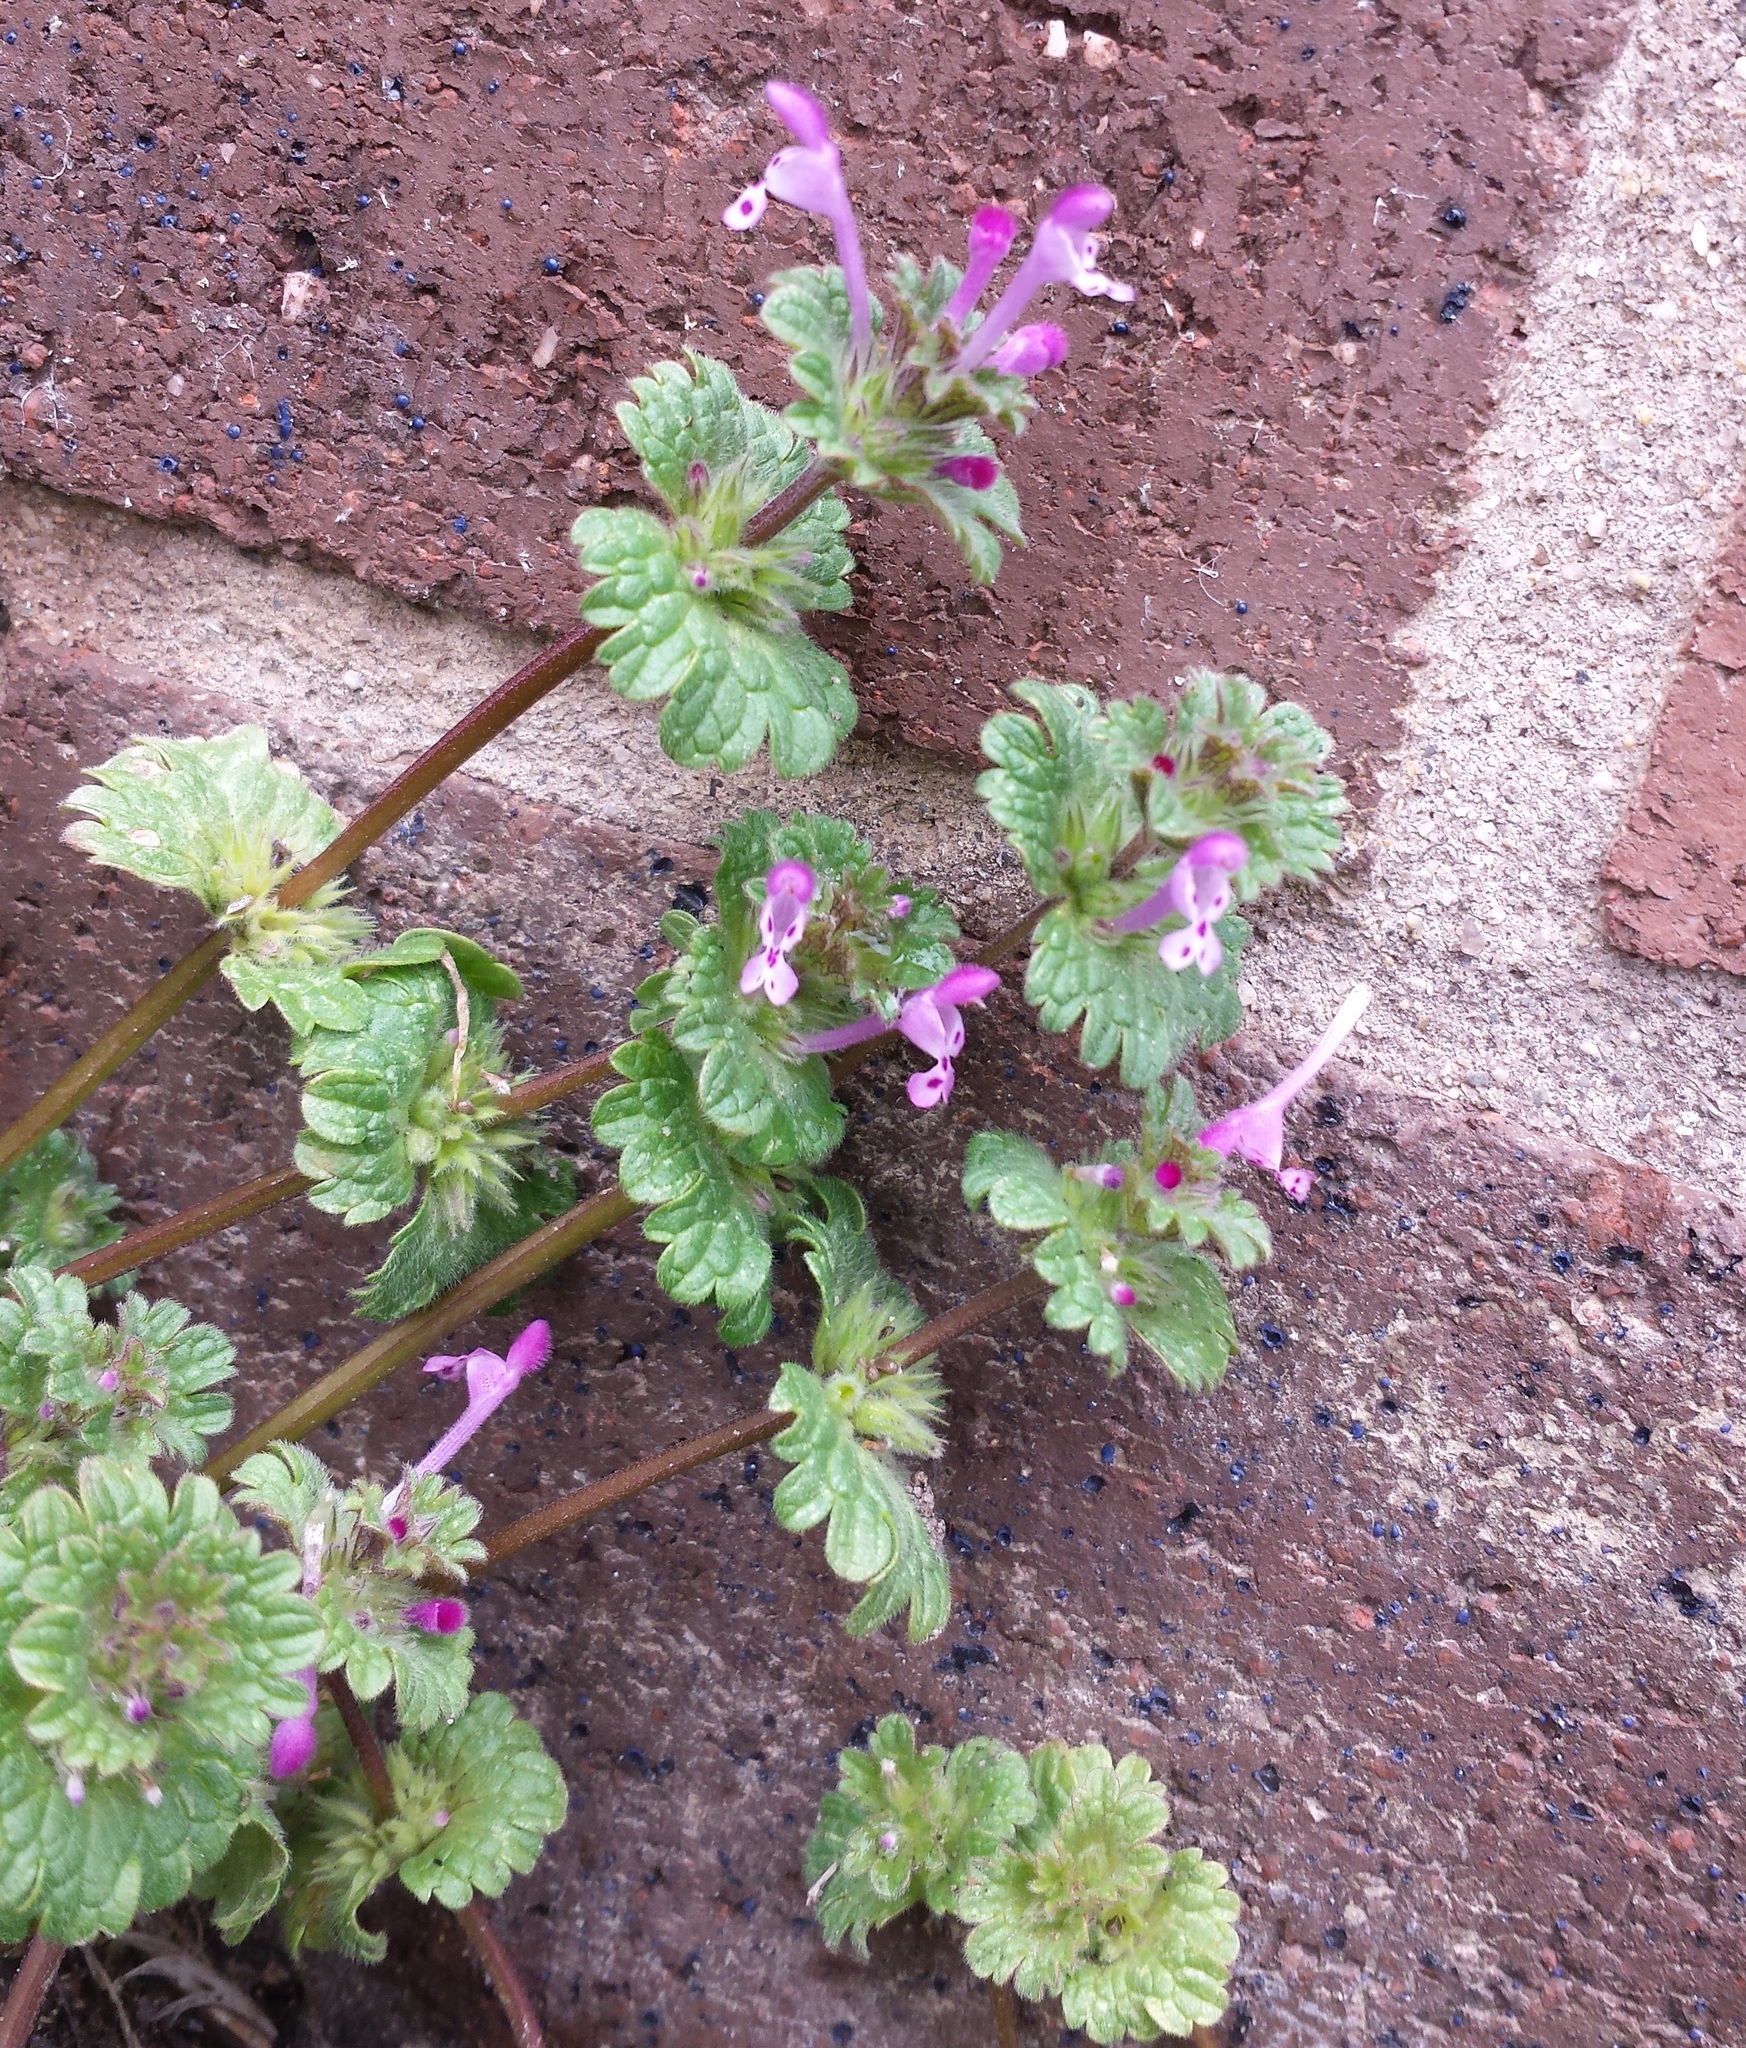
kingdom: Plantae
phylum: Tracheophyta
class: Magnoliopsida
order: Lamiales
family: Lamiaceae
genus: Lamium
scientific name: Lamium amplexicaule
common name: Henbit dead-nettle
